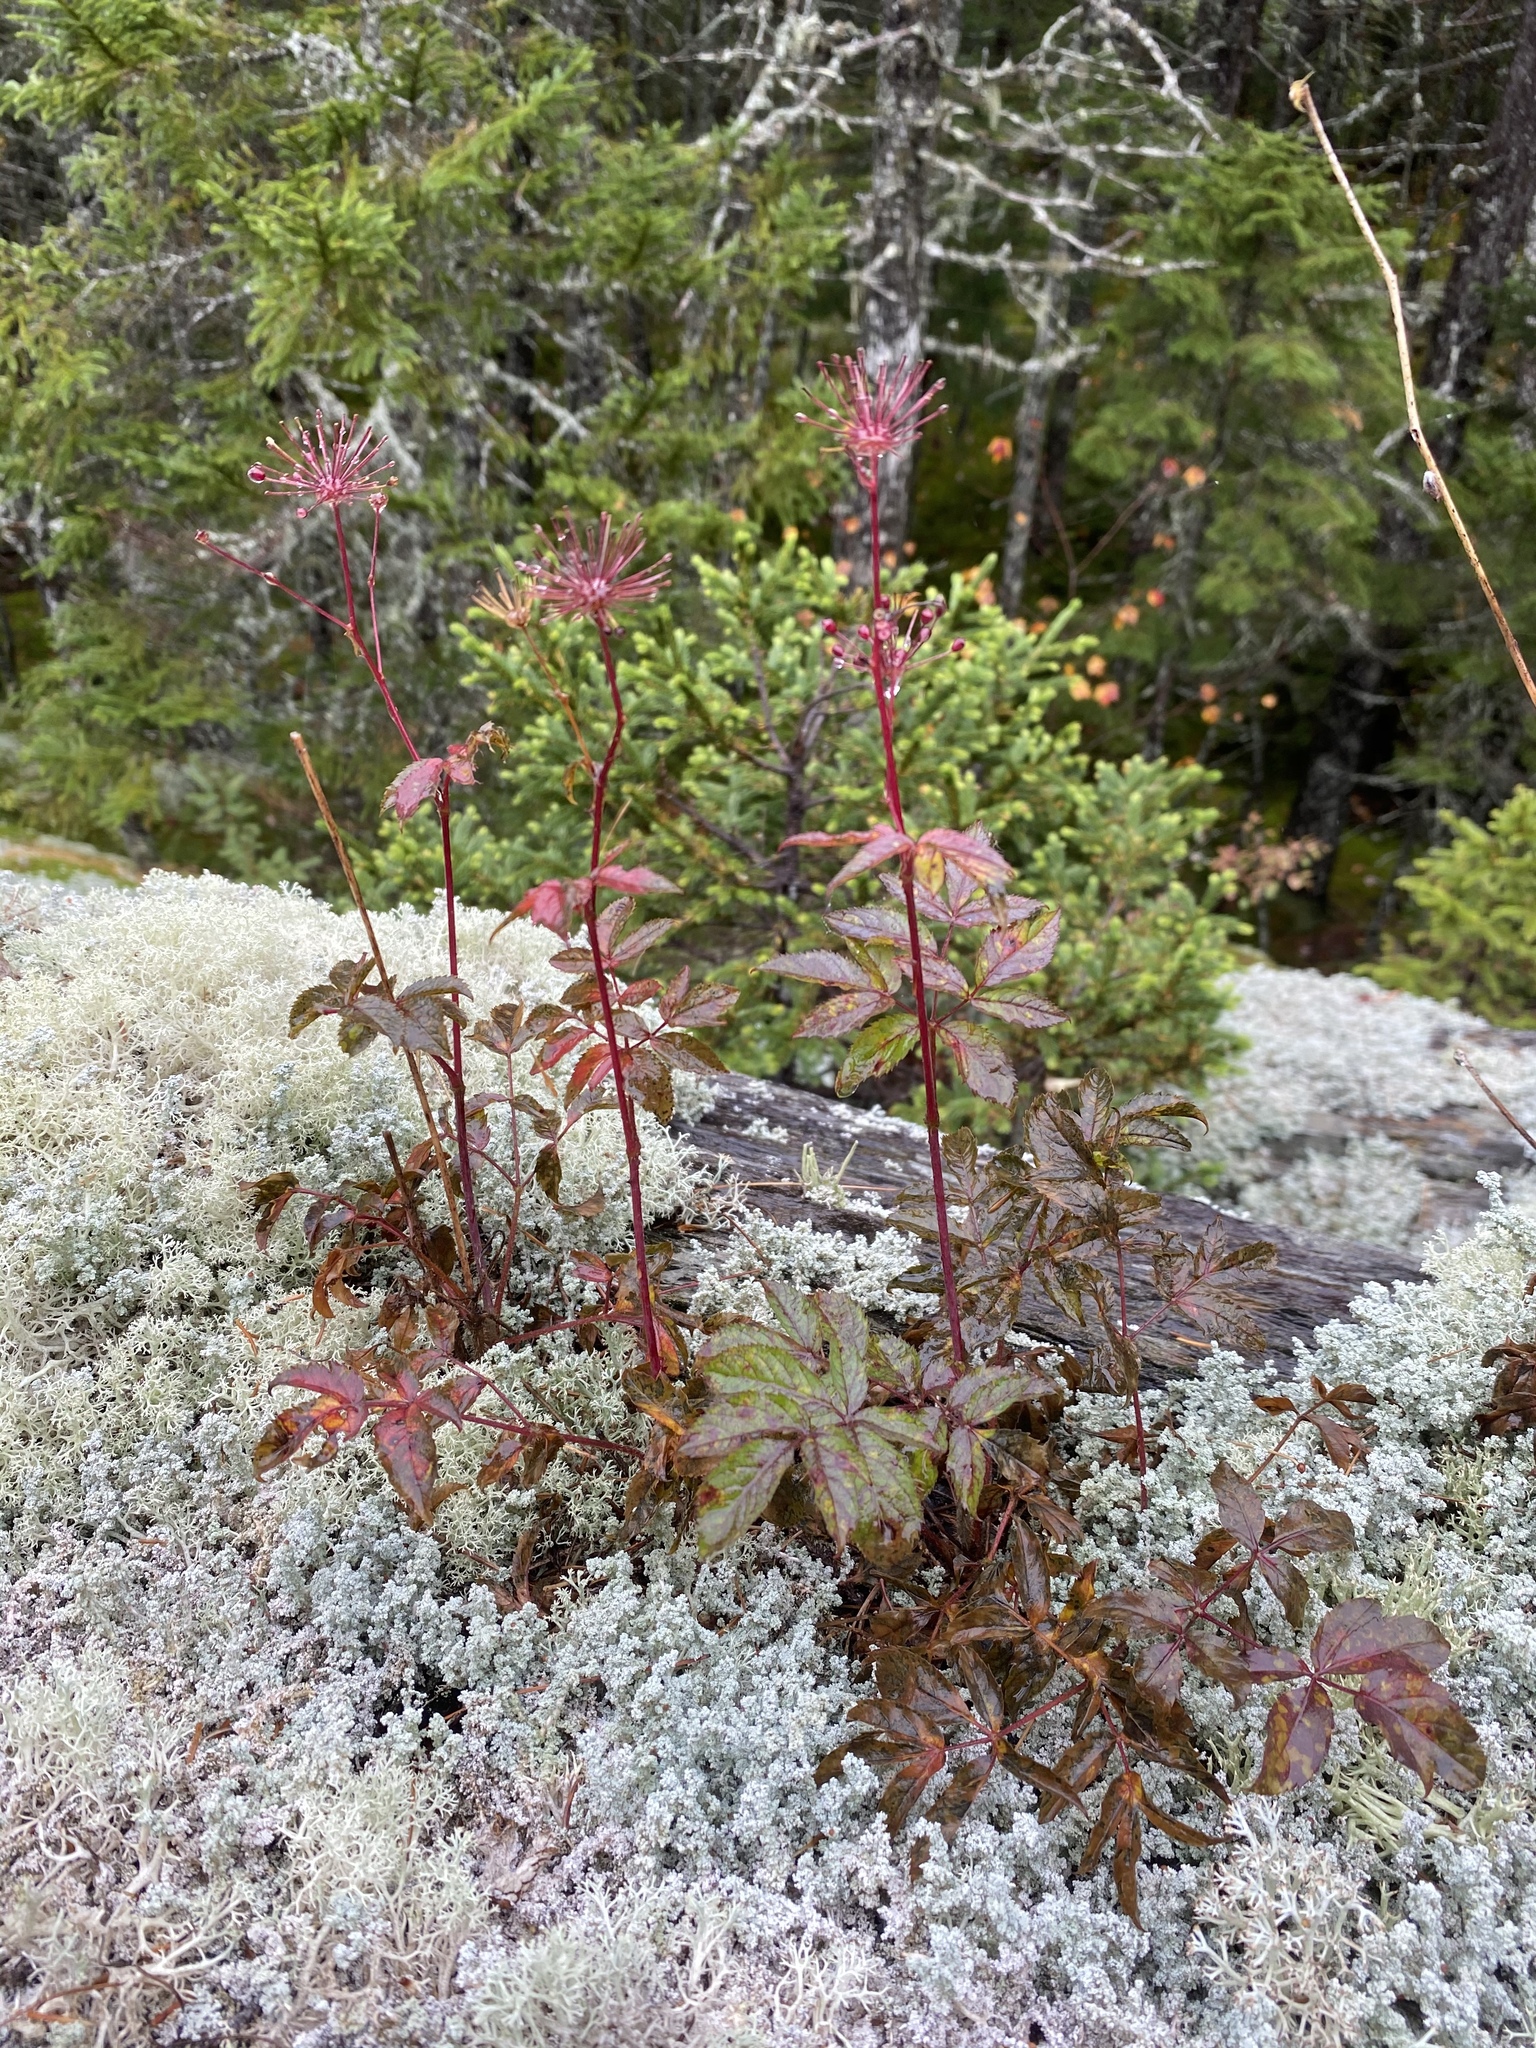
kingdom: Plantae
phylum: Tracheophyta
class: Magnoliopsida
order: Apiales
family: Araliaceae
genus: Aralia
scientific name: Aralia hispida
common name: Bristly sarsaparilla
